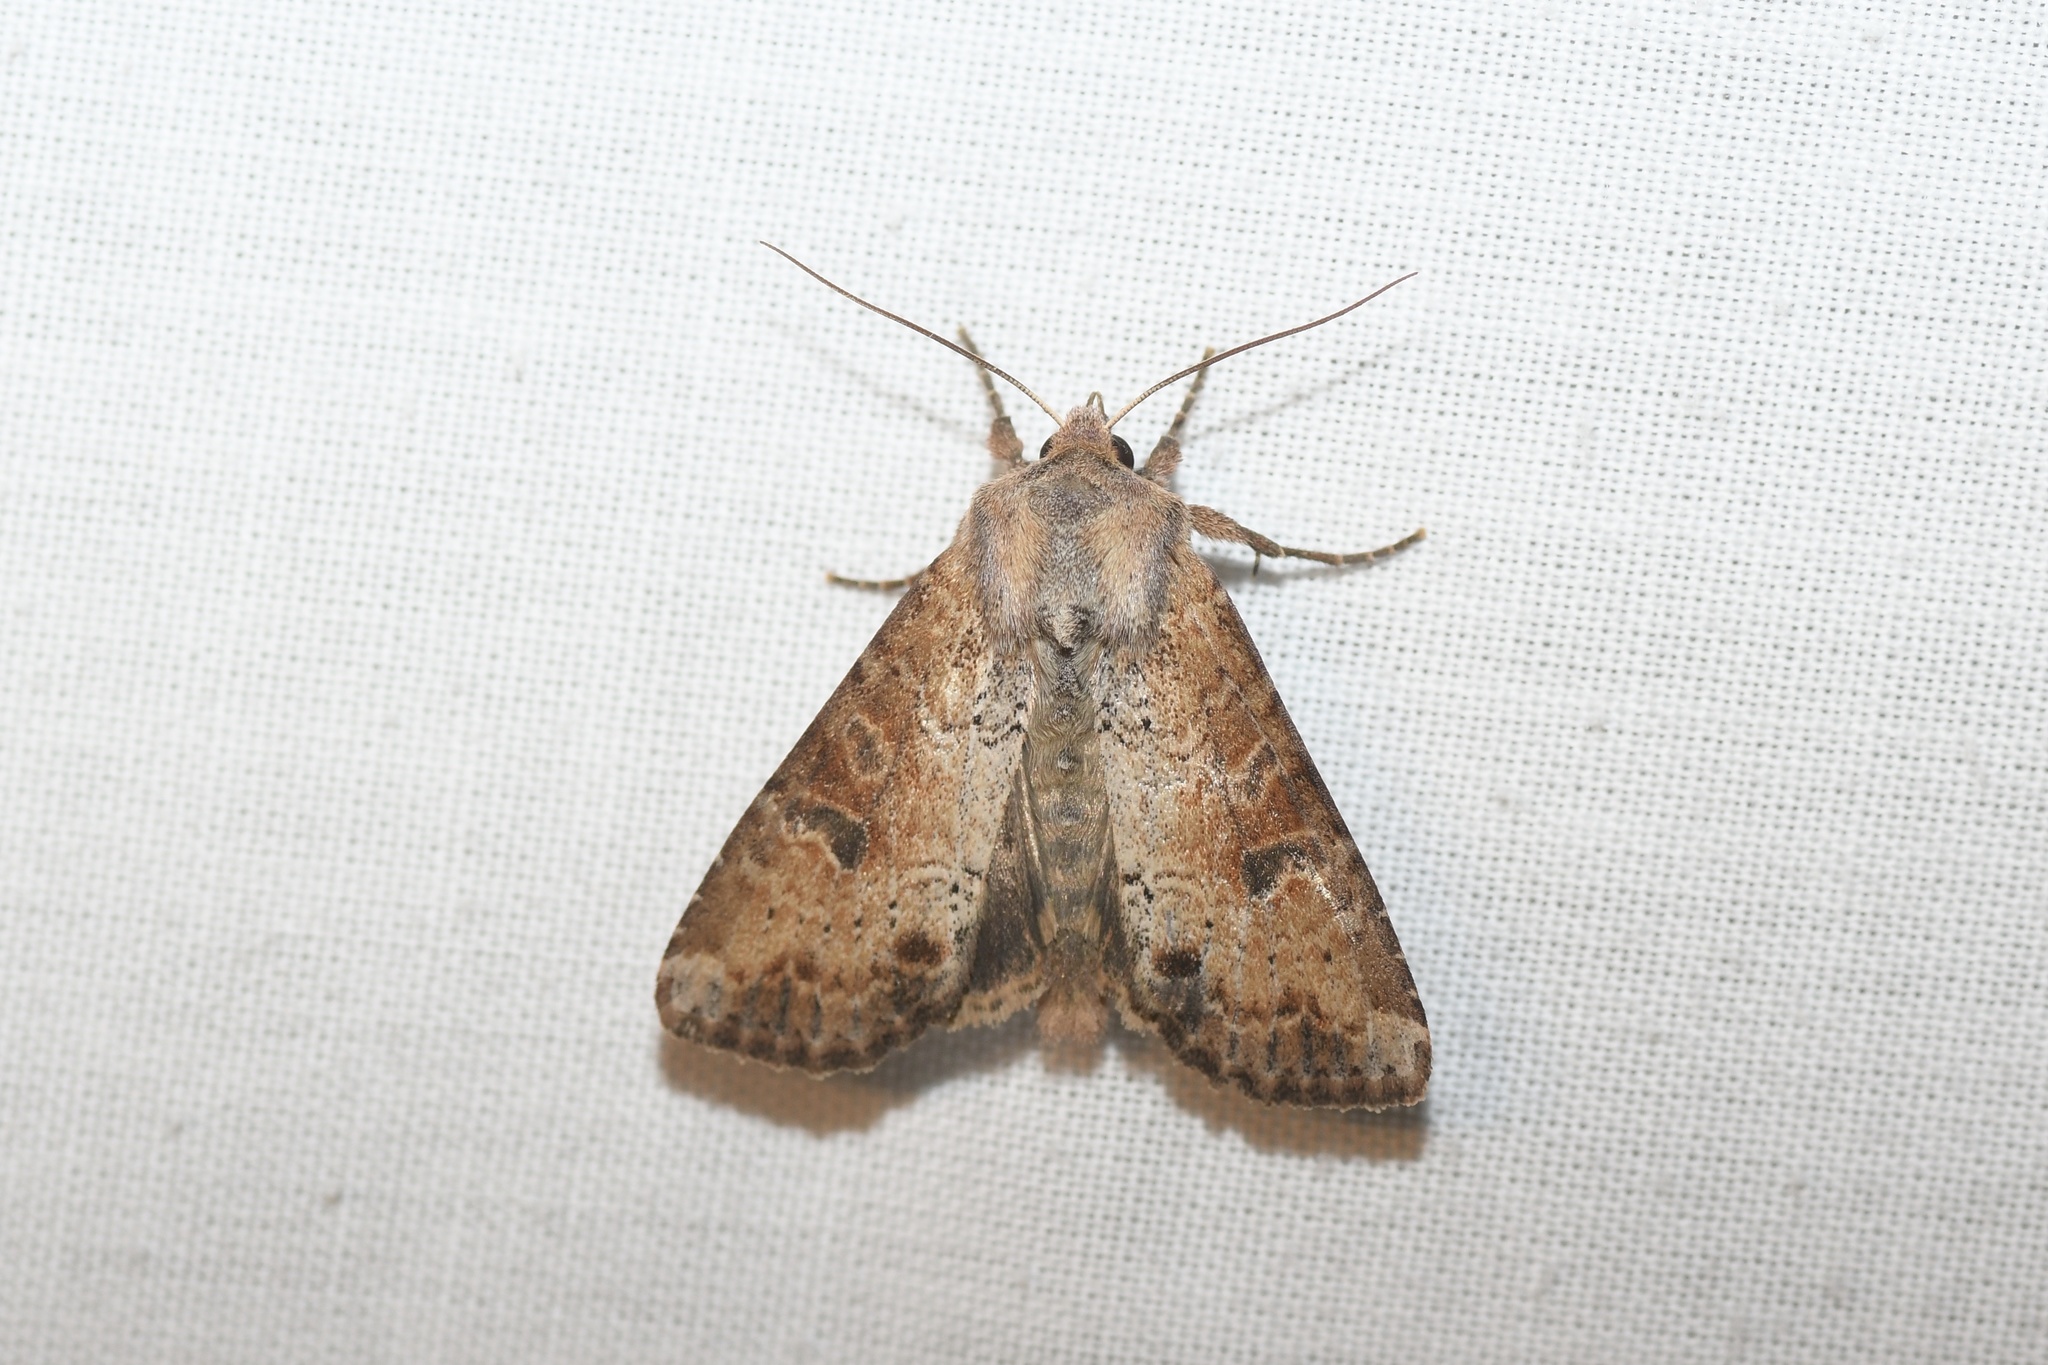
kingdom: Animalia
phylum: Arthropoda
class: Insecta
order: Lepidoptera
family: Noctuidae
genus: Apamea
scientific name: Apamea alia
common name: Fox apamea
